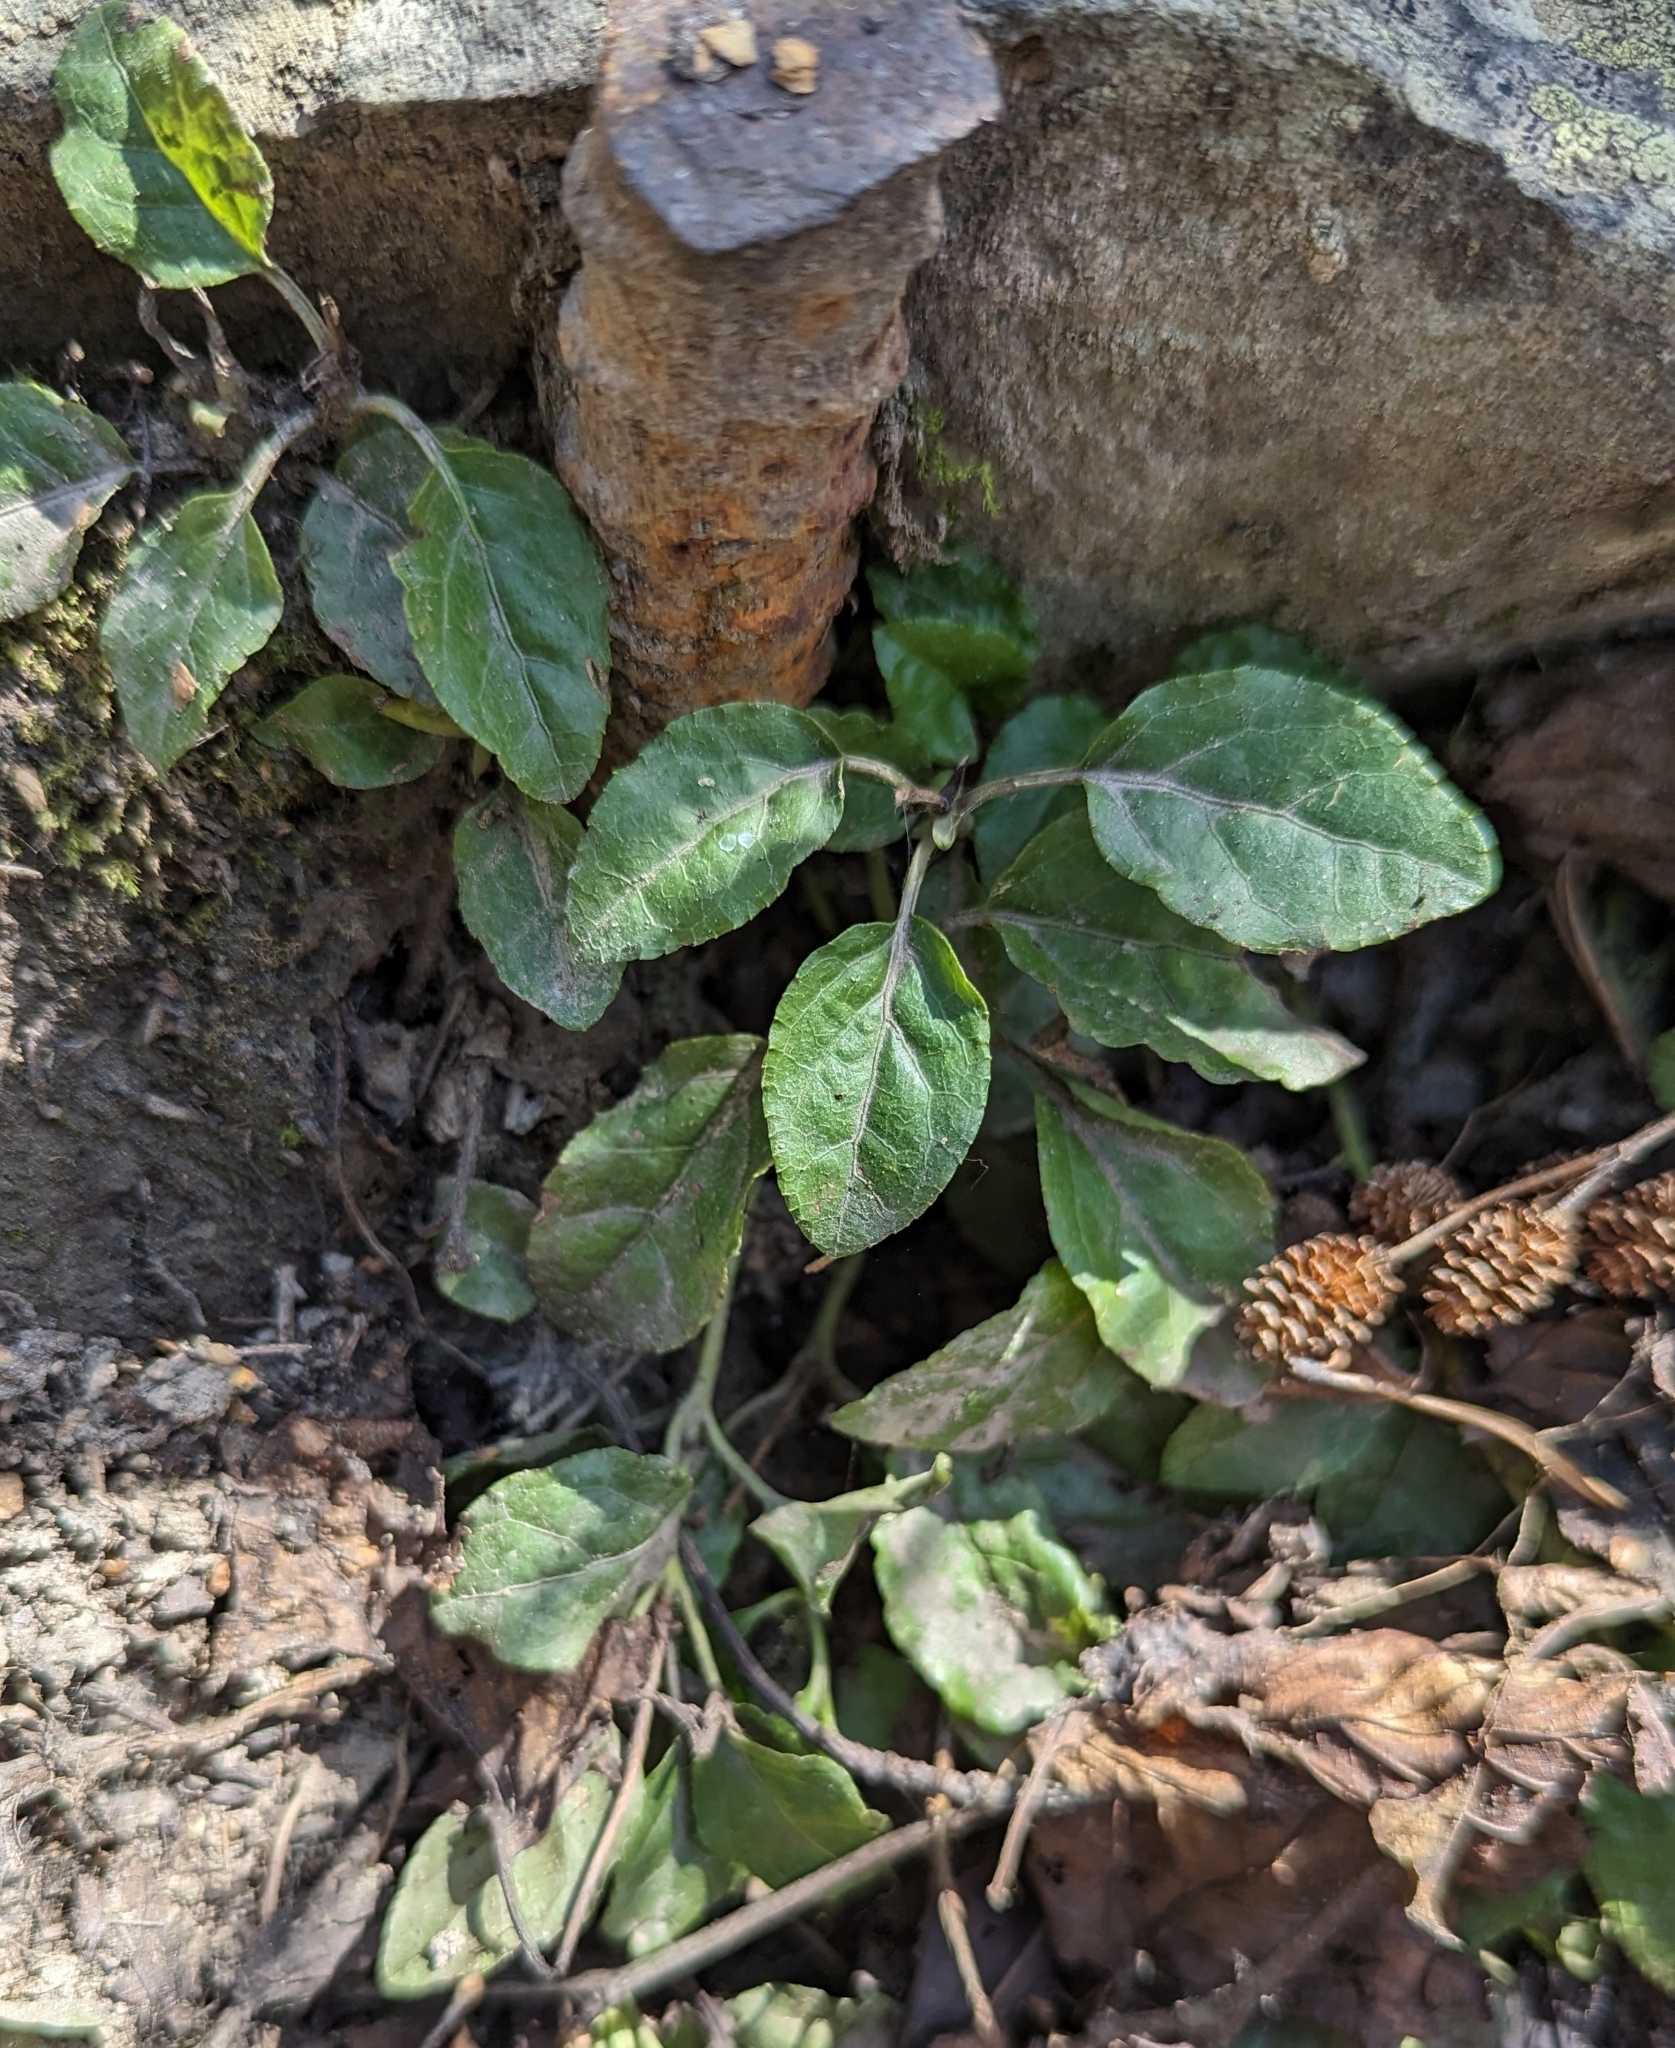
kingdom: Plantae
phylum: Tracheophyta
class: Magnoliopsida
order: Ericales
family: Ericaceae
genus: Orthilia
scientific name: Orthilia secunda
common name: One-sided orthilia
